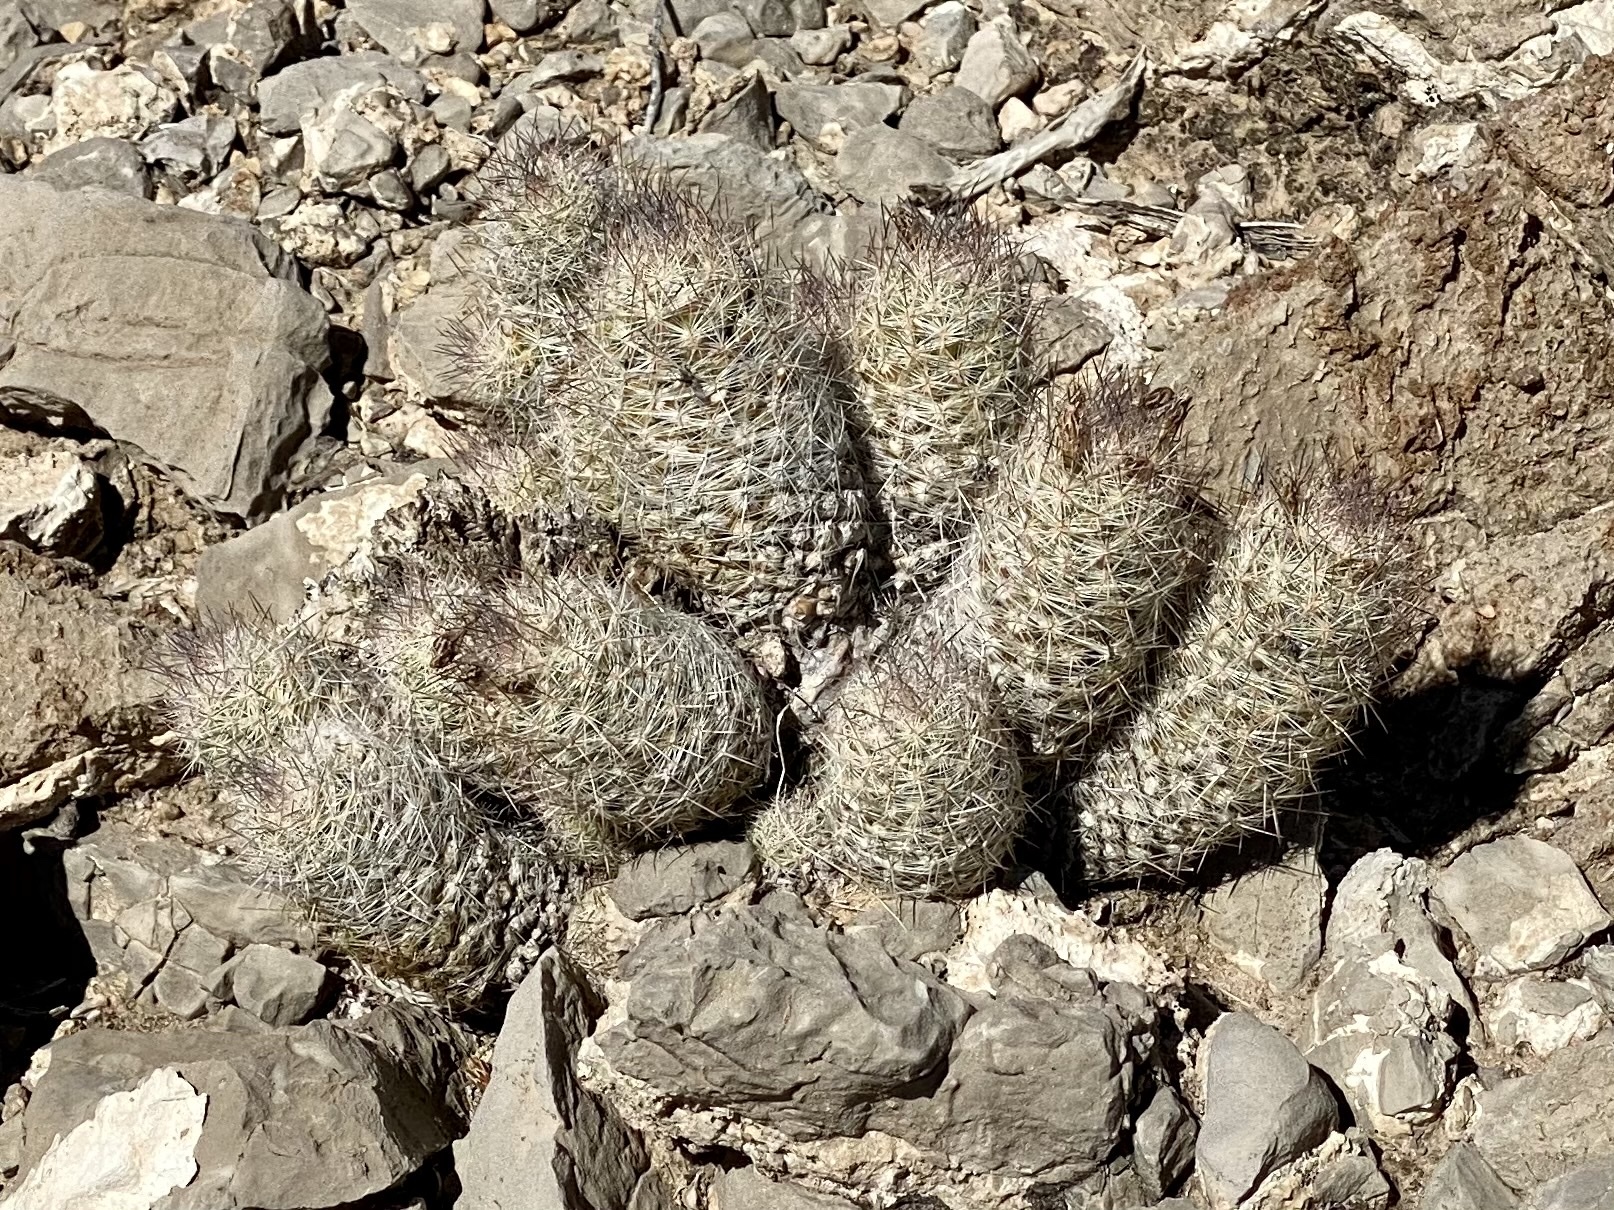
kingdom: Plantae
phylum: Tracheophyta
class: Magnoliopsida
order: Caryophyllales
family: Cactaceae
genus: Pelecyphora
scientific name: Pelecyphora tuberculosa
